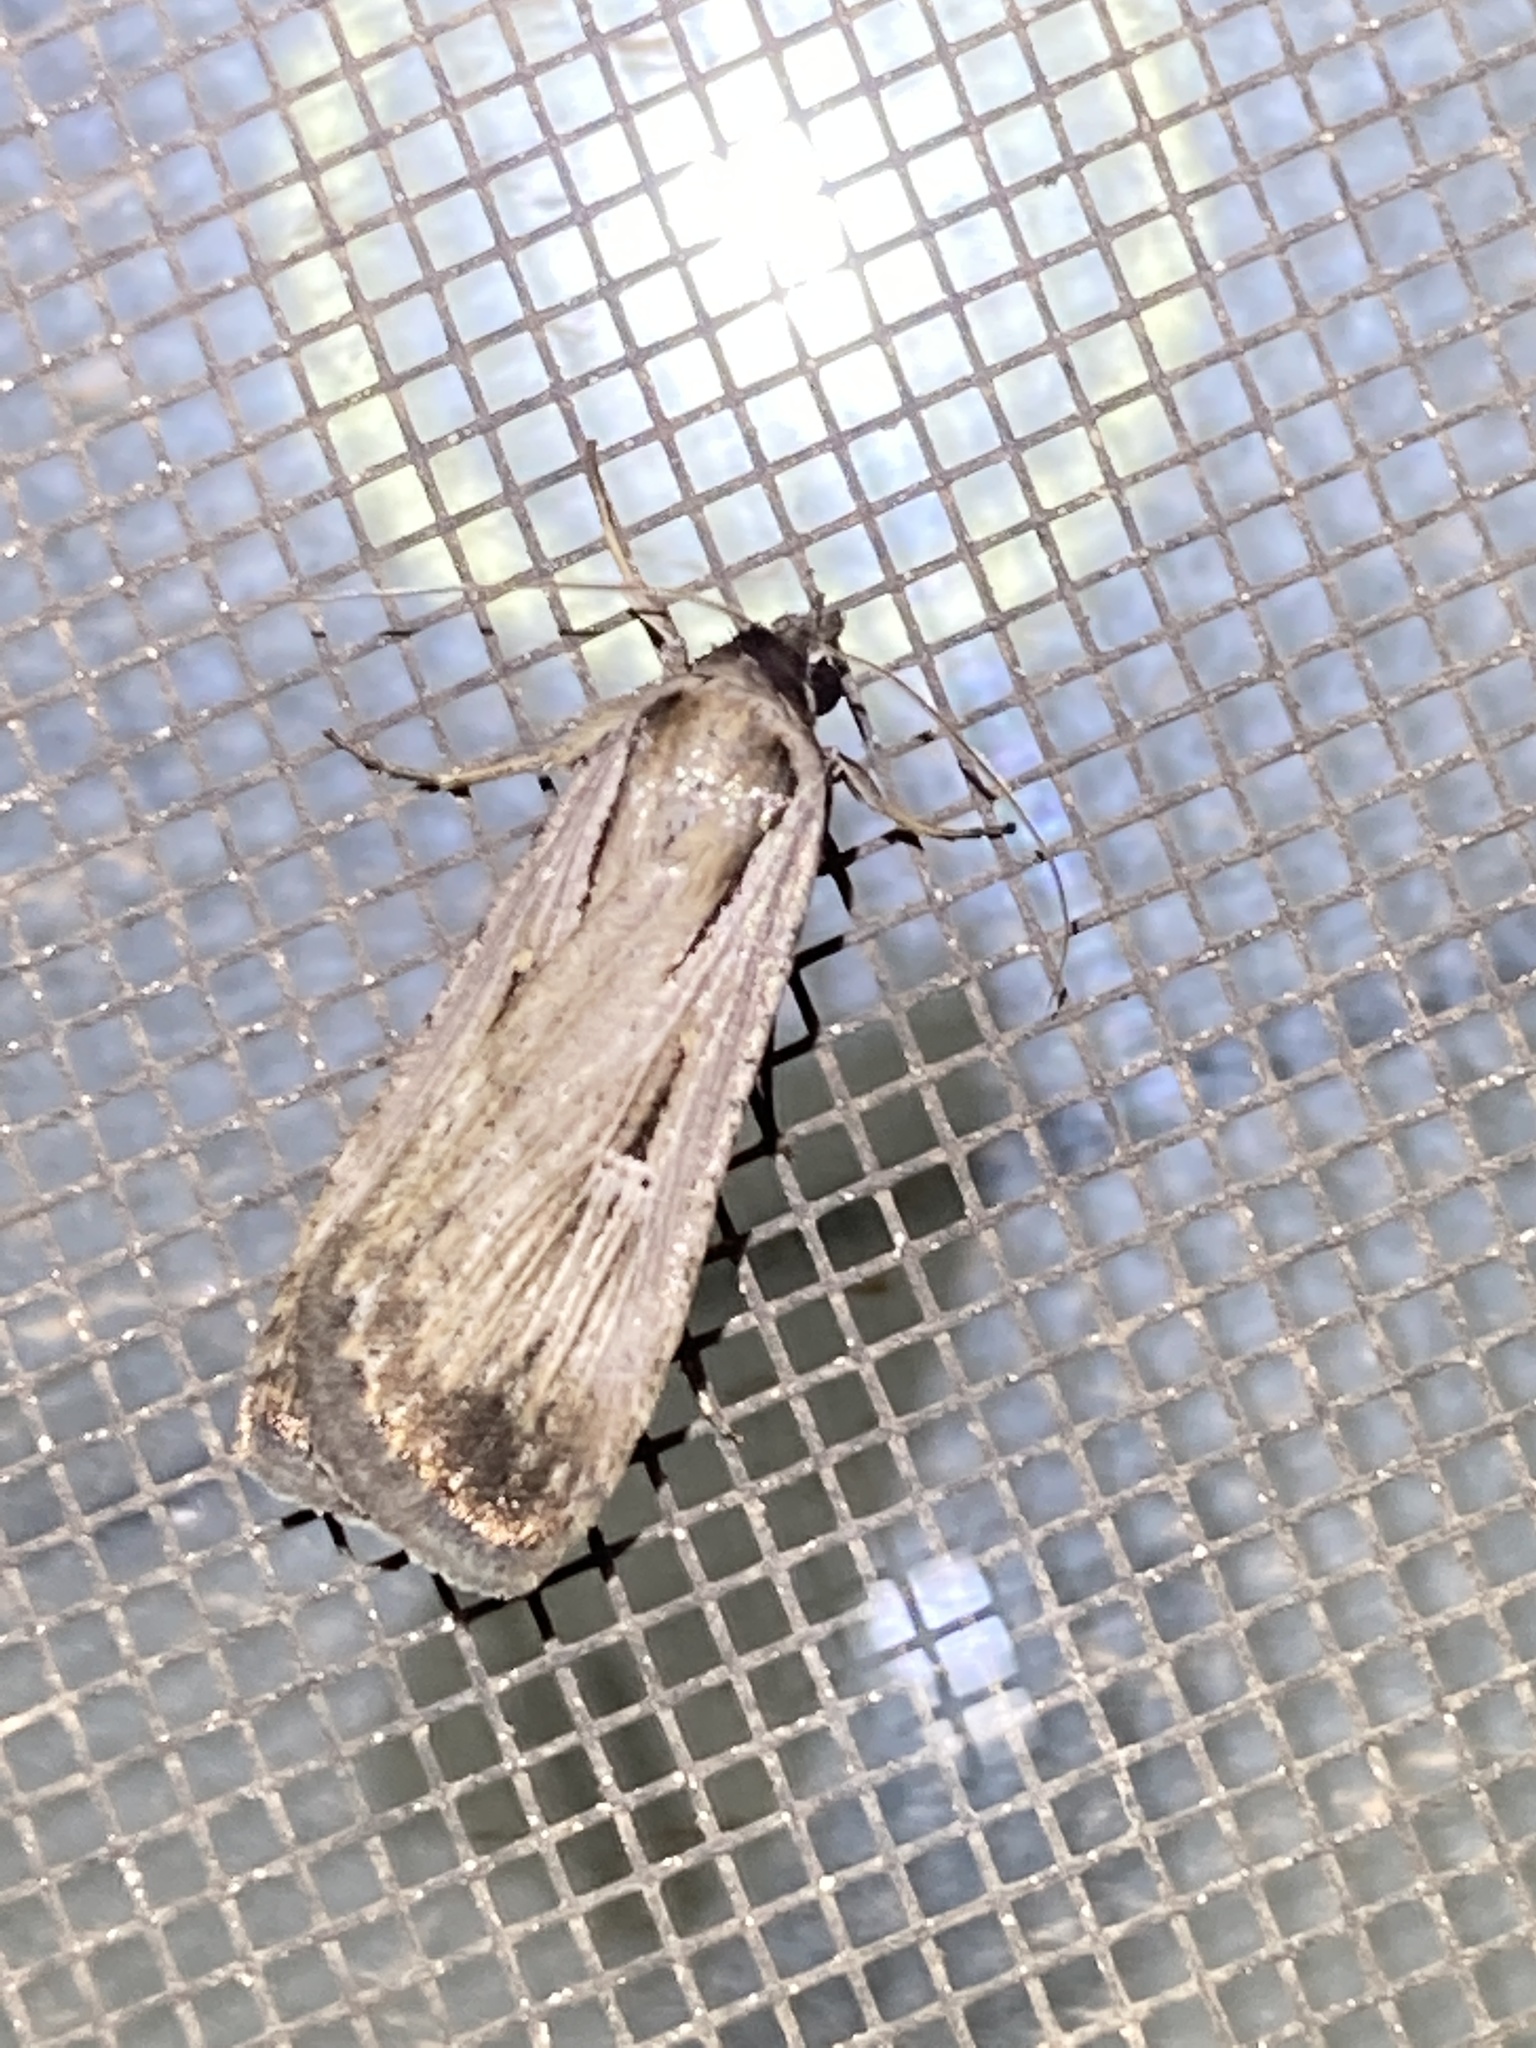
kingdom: Animalia
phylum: Arthropoda
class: Insecta
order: Lepidoptera
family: Noctuidae
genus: Tathorhynchus
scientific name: Tathorhynchus exsiccata
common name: Levant blackneck moth
